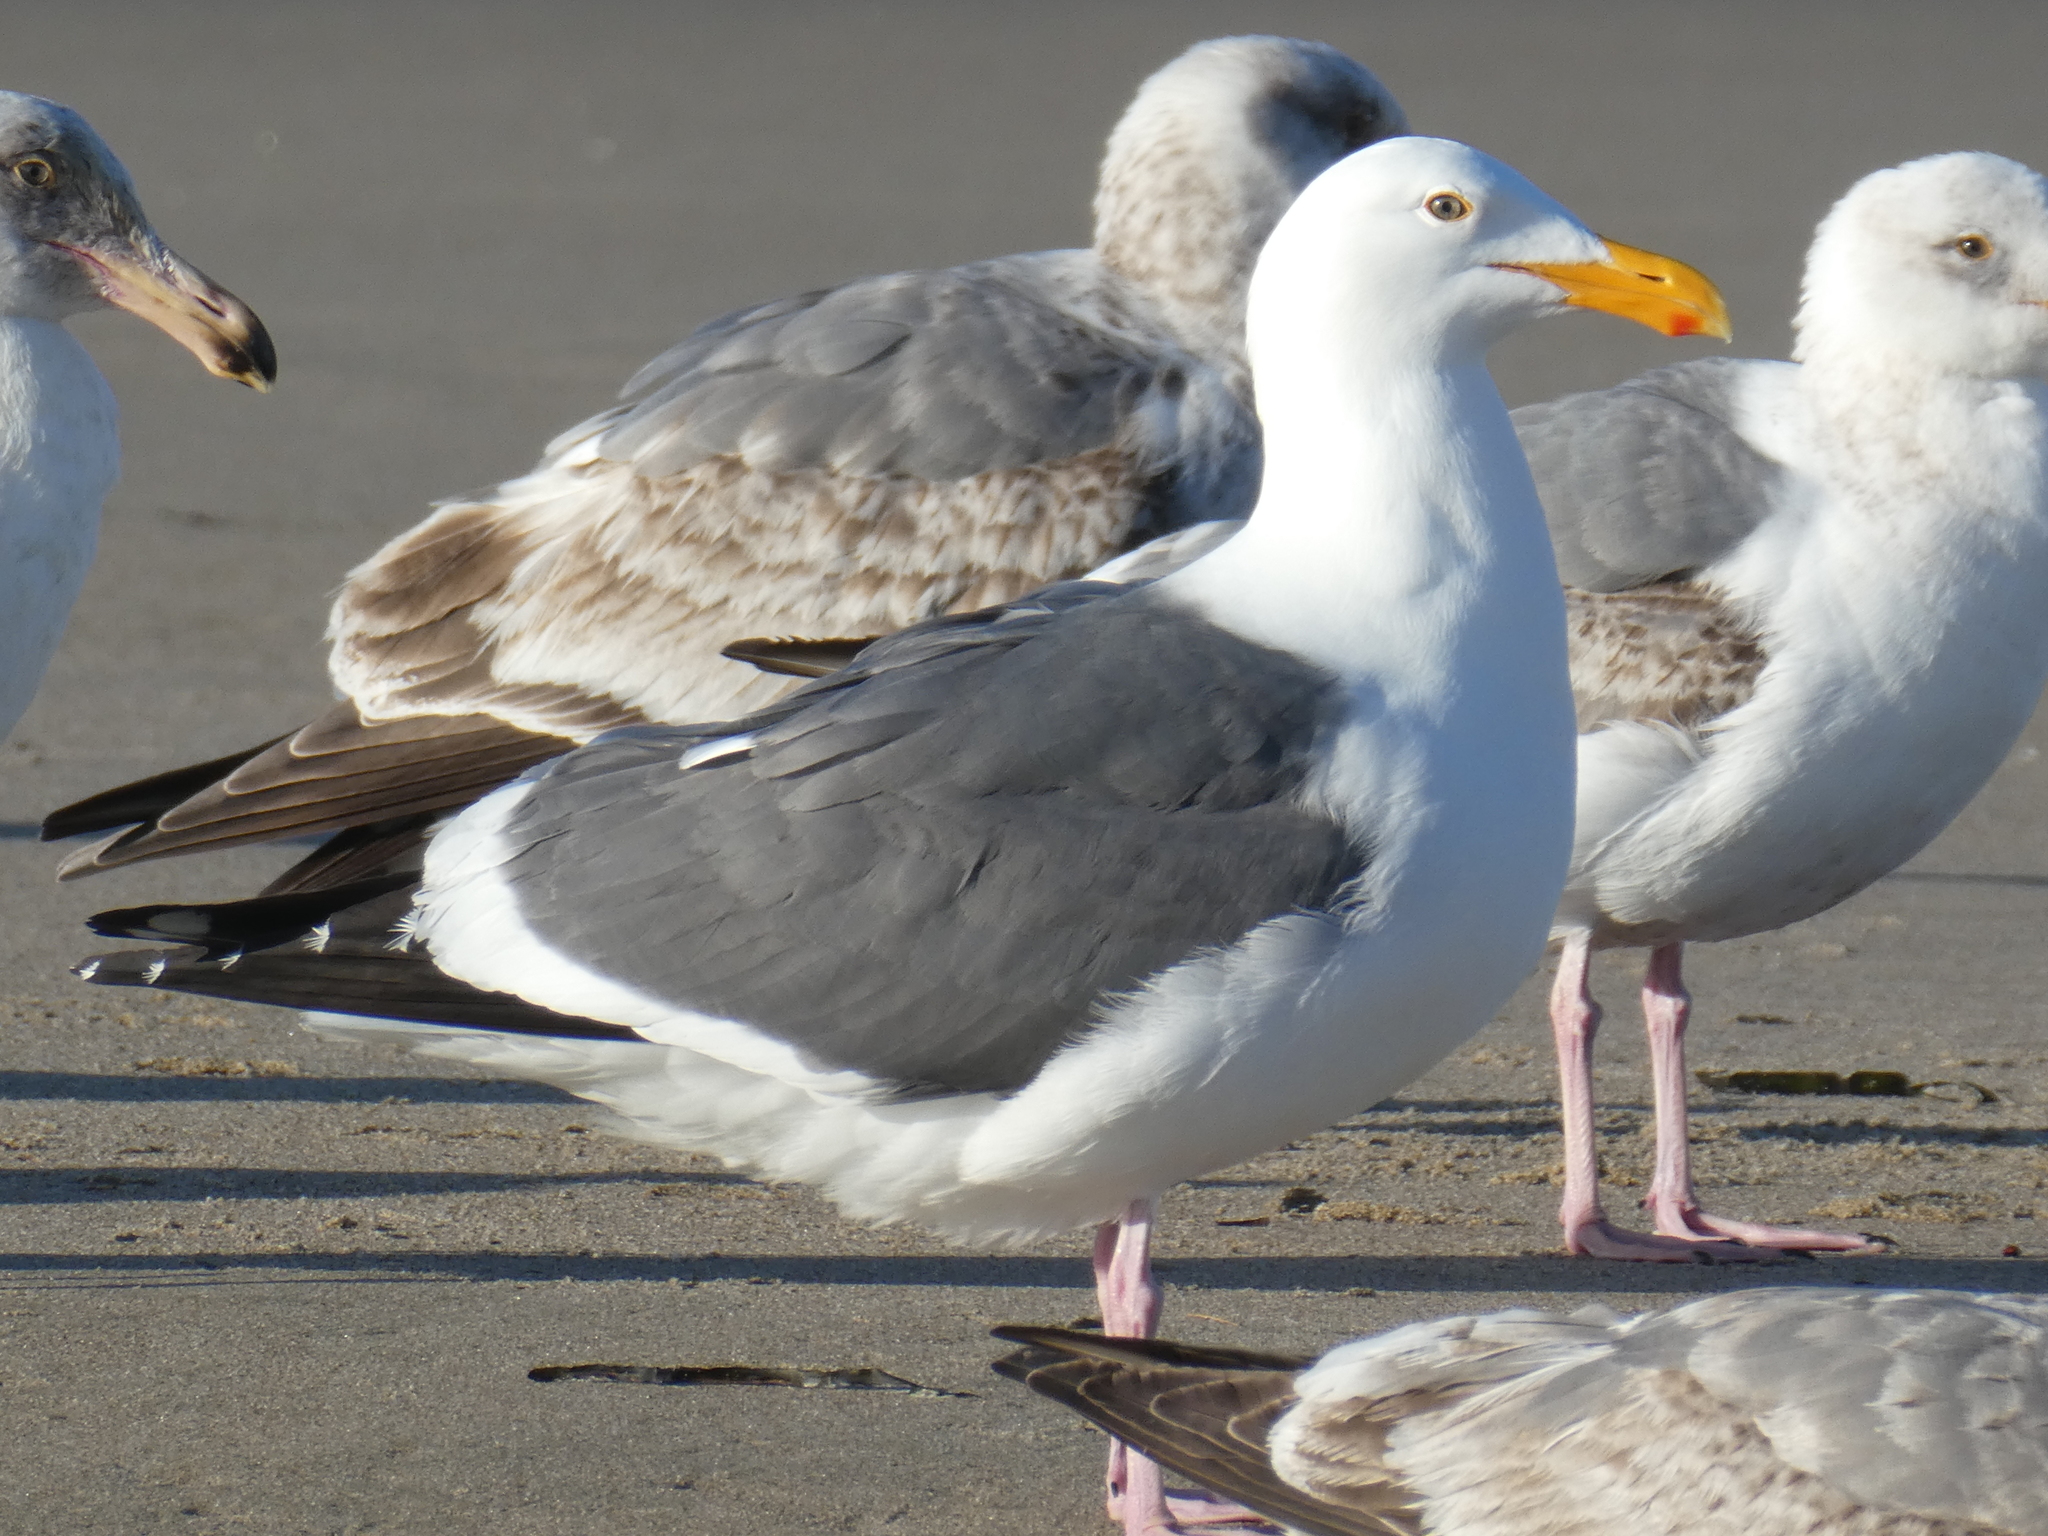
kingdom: Animalia
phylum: Chordata
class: Aves
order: Charadriiformes
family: Laridae
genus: Larus
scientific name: Larus occidentalis
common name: Western gull
